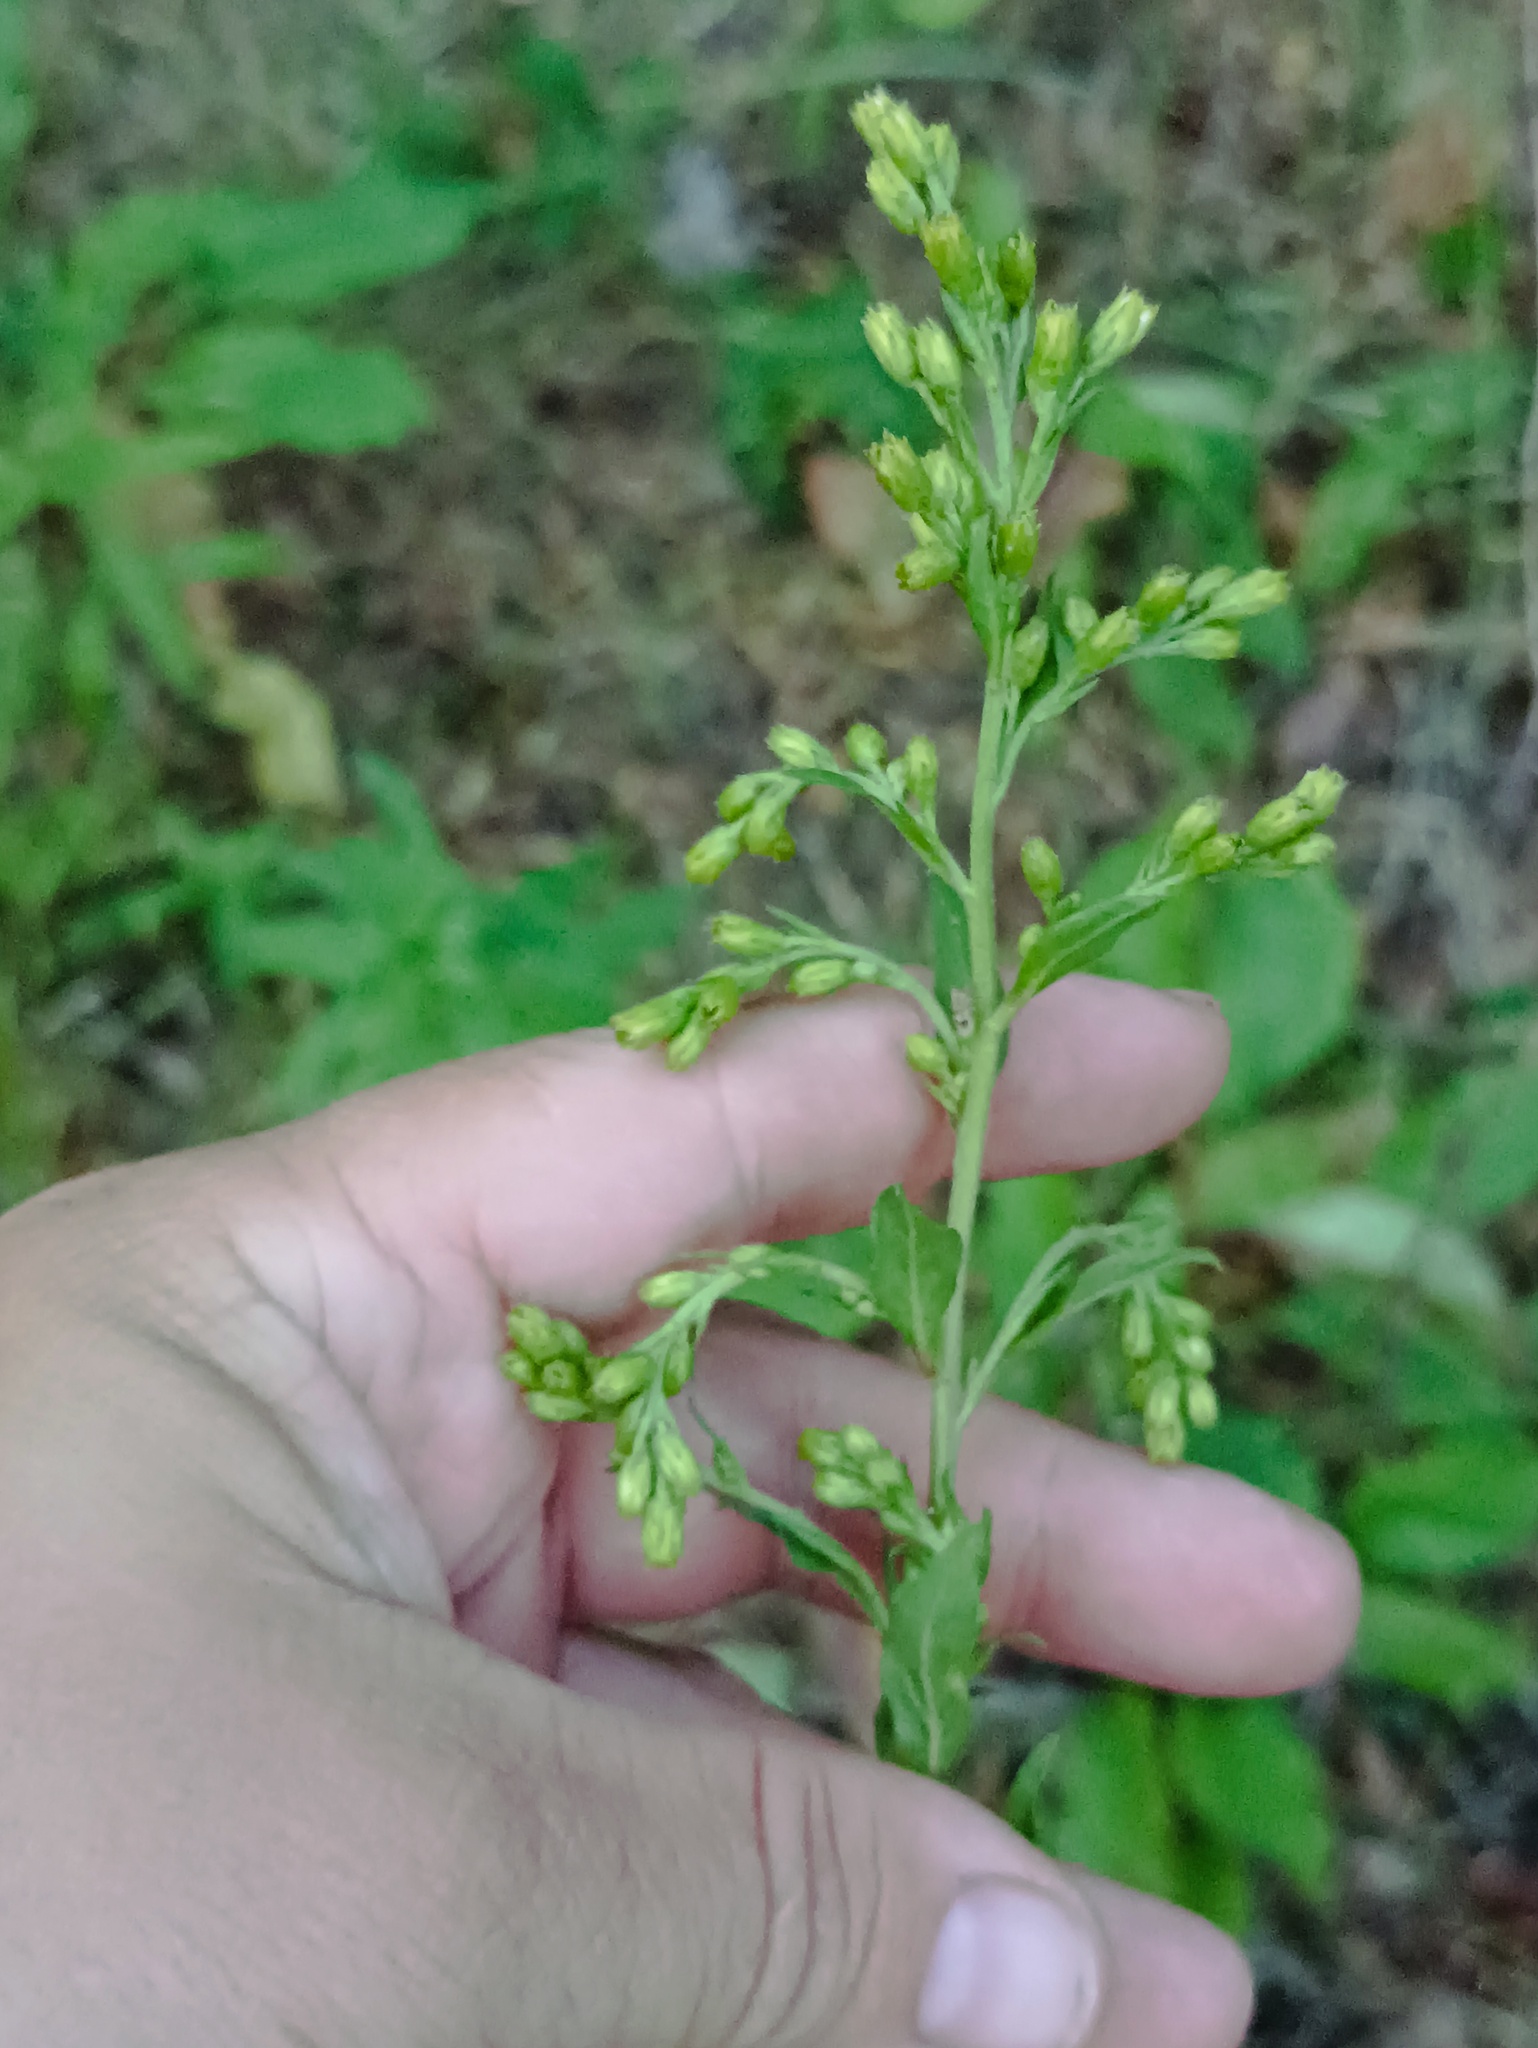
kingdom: Plantae
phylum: Tracheophyta
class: Magnoliopsida
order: Asterales
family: Asteraceae
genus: Solidago
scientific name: Solidago virgaurea
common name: Goldenrod
